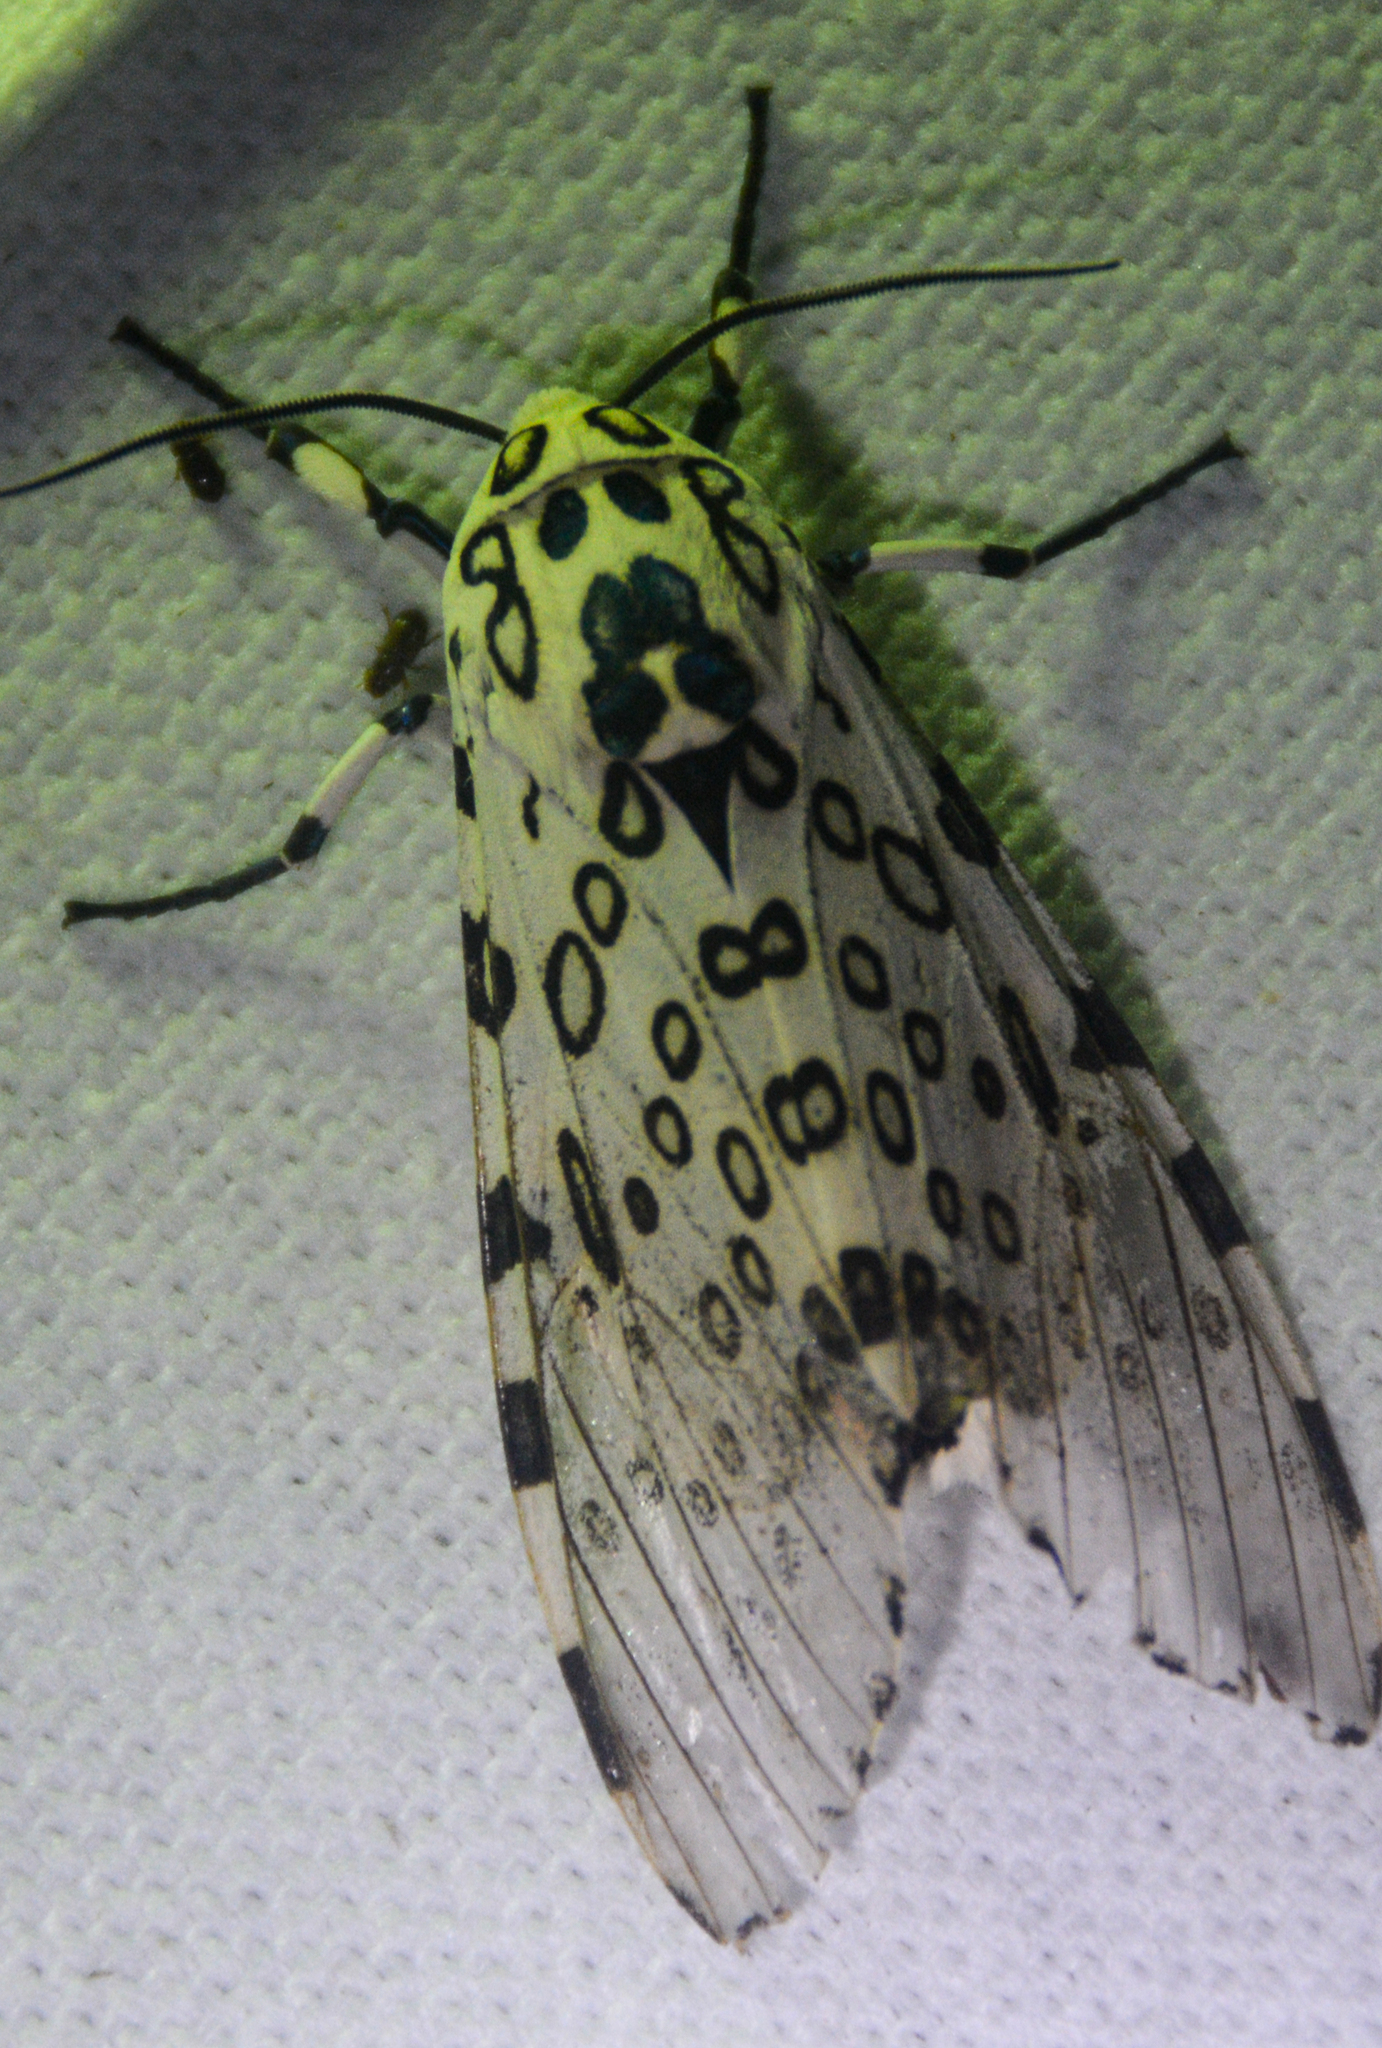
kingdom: Animalia
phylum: Arthropoda
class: Insecta
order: Lepidoptera
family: Erebidae
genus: Hypercompe
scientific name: Hypercompe scribonia
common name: Giant leopard moth
